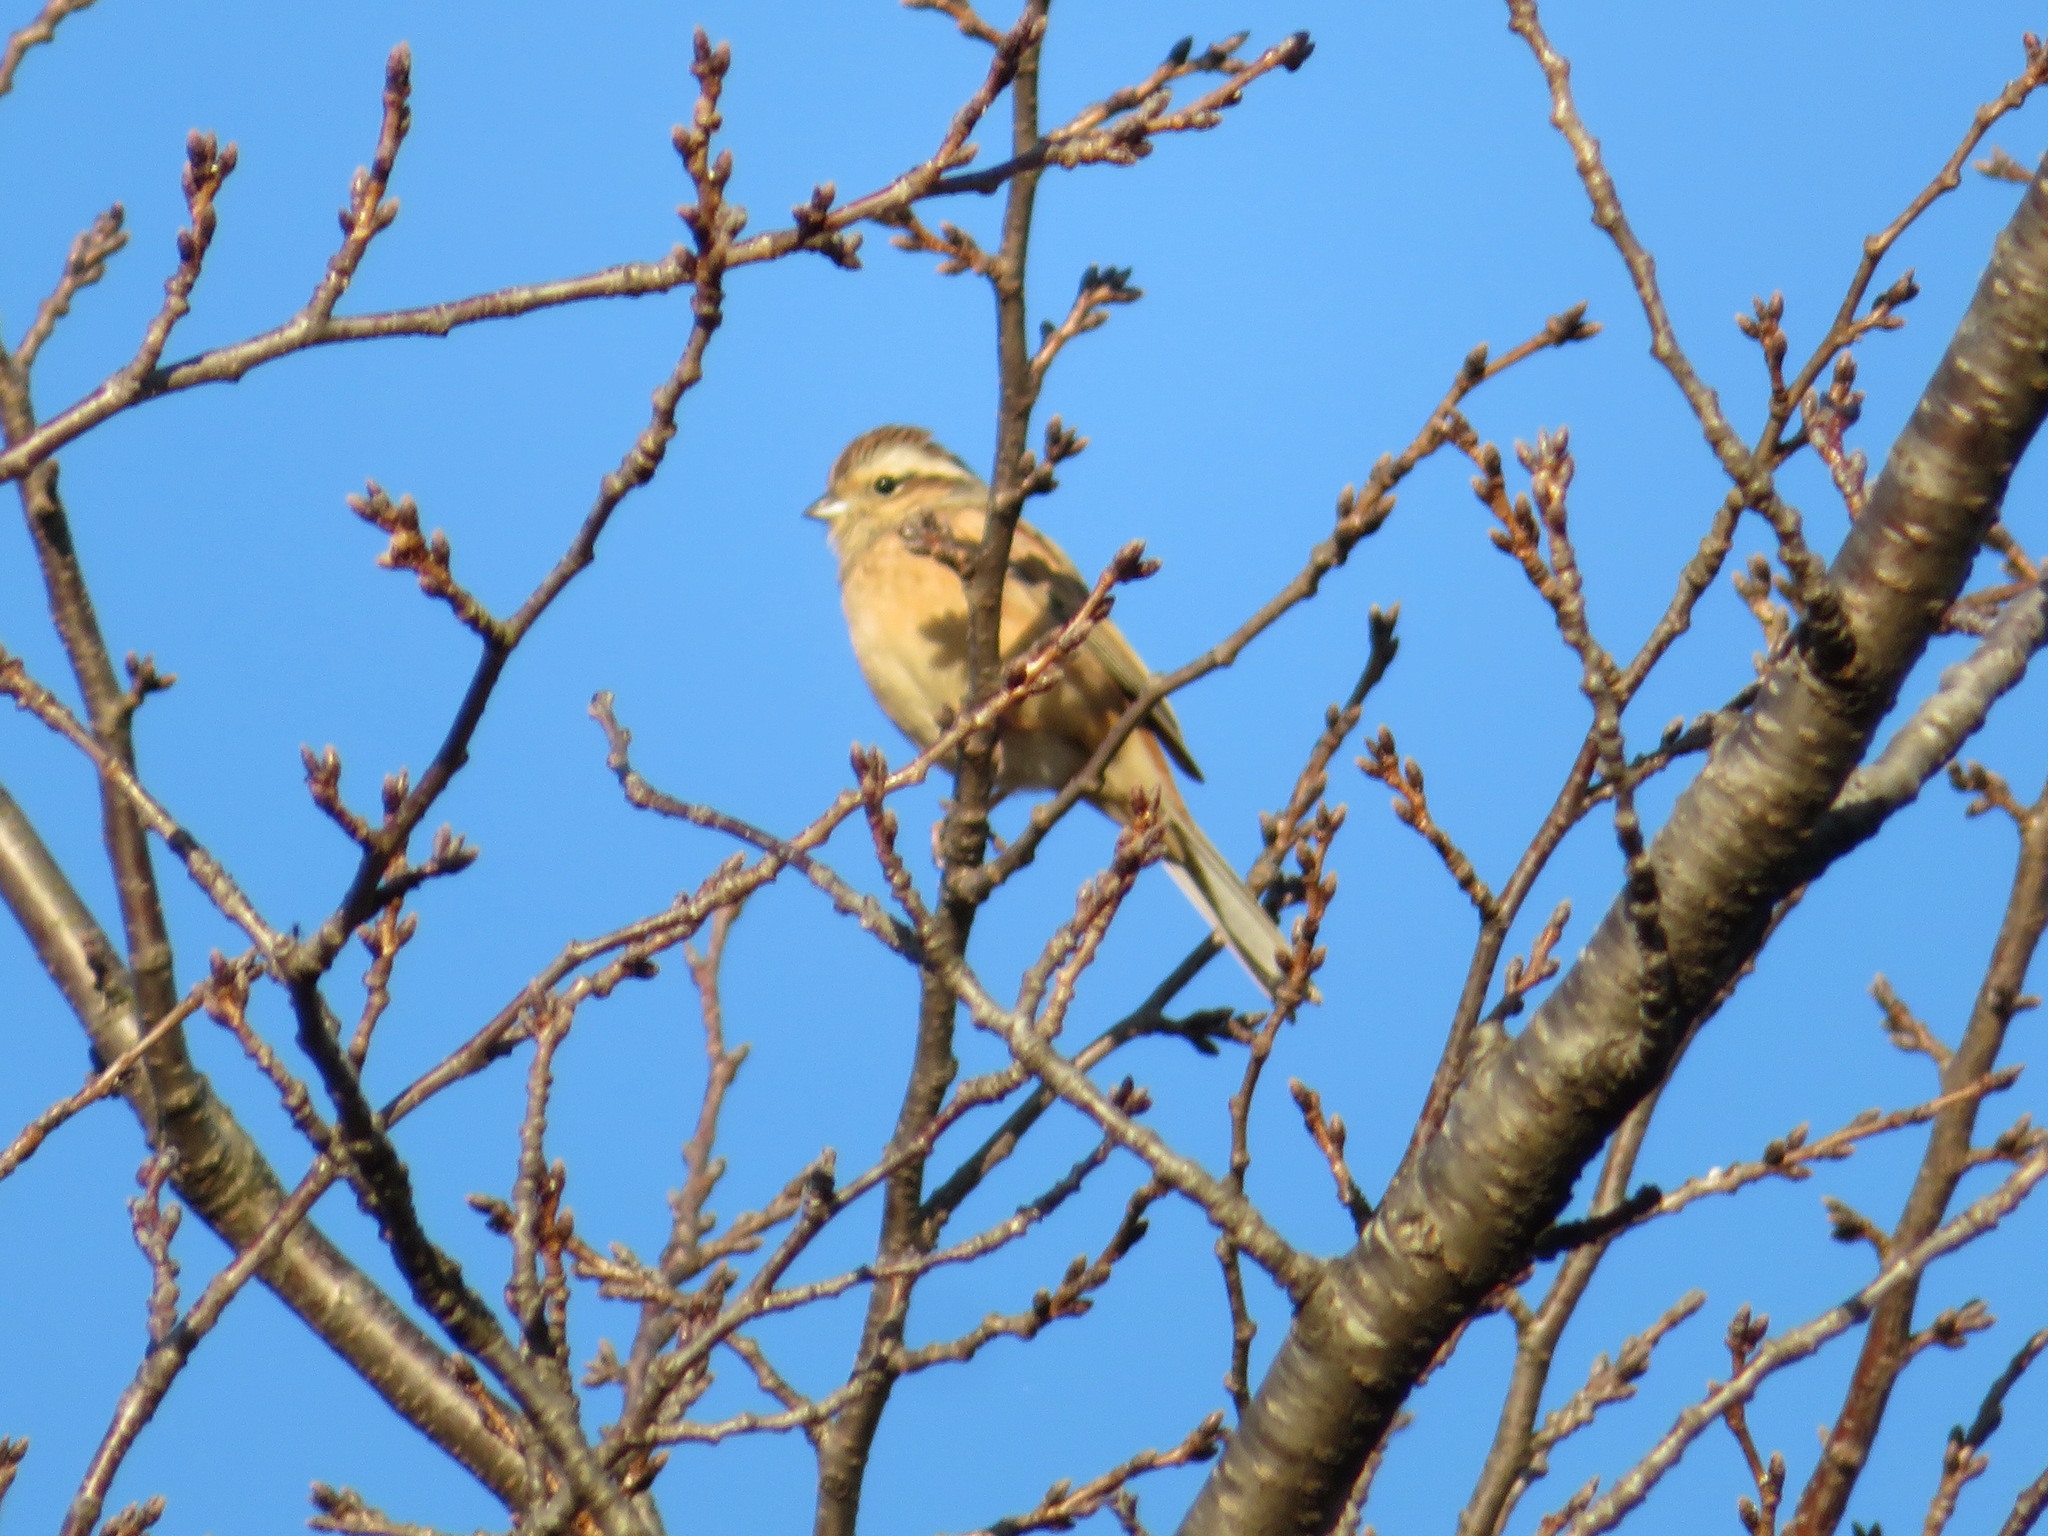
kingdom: Animalia
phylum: Chordata
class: Aves
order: Passeriformes
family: Emberizidae
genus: Emberiza
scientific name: Emberiza cioides
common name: Meadow bunting
